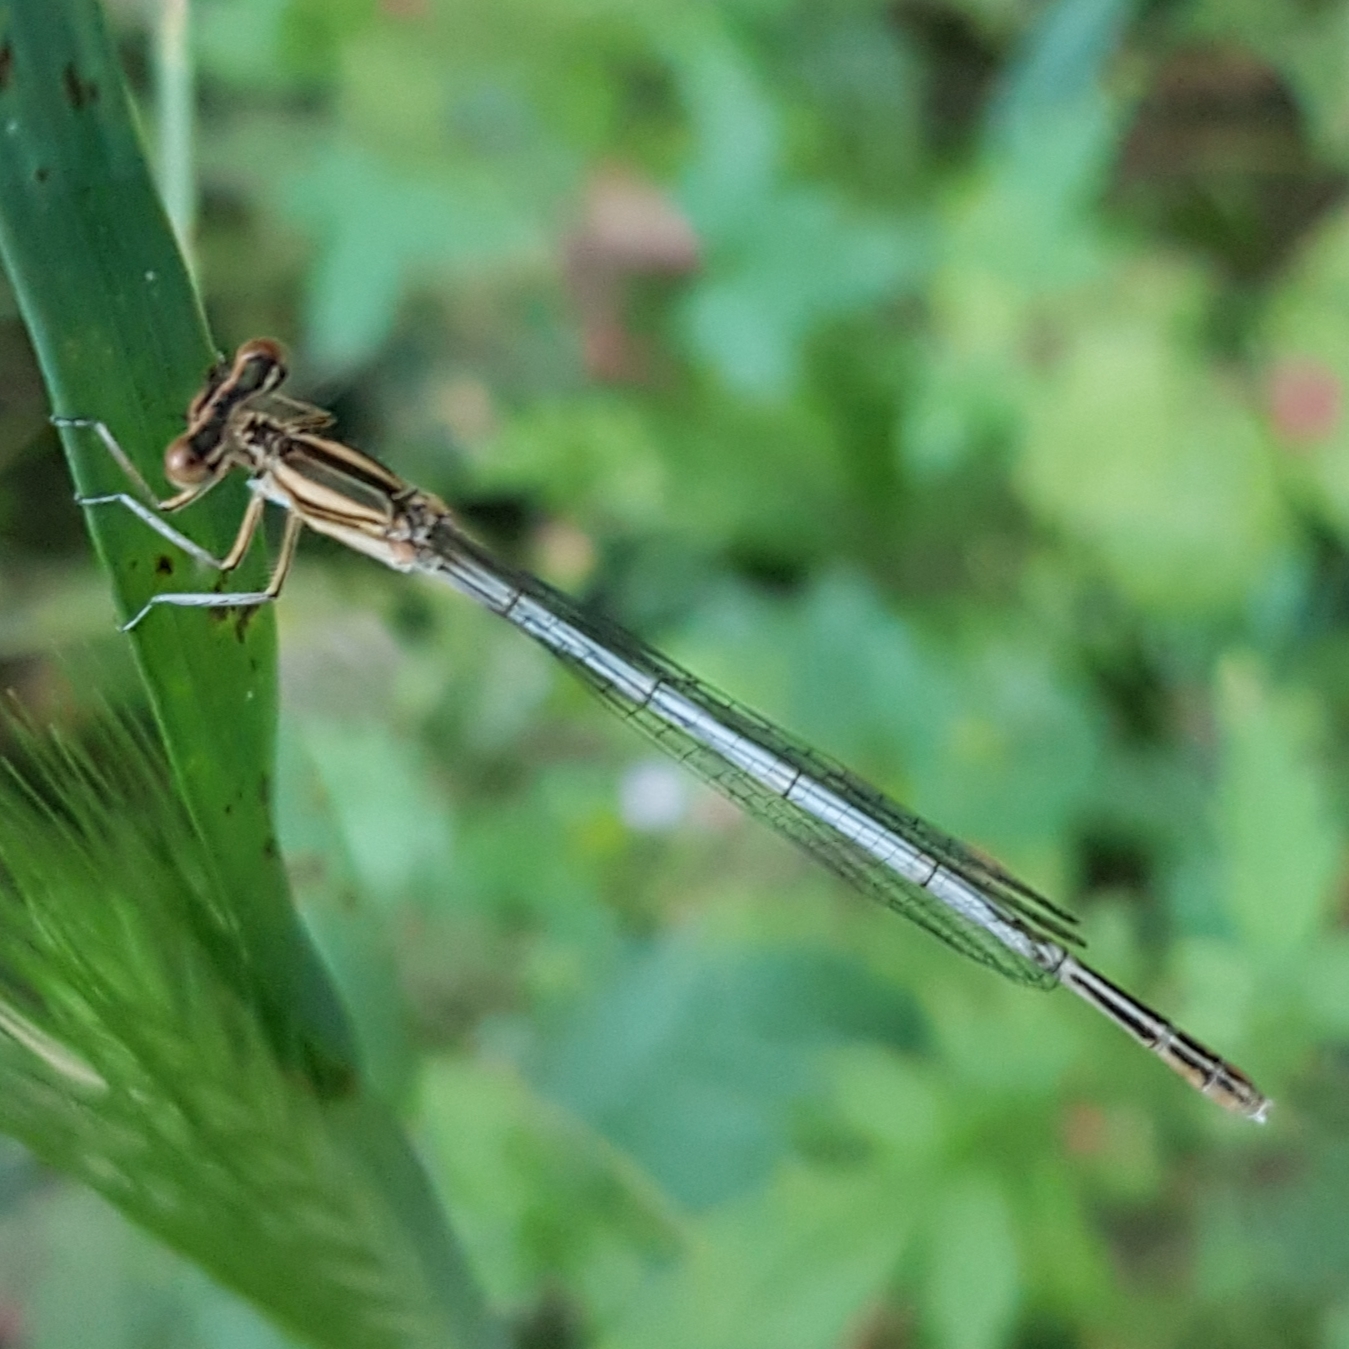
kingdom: Animalia
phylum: Arthropoda
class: Insecta
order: Odonata
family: Platycnemididae
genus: Platycnemis
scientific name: Platycnemis latipes
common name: White featherleg
